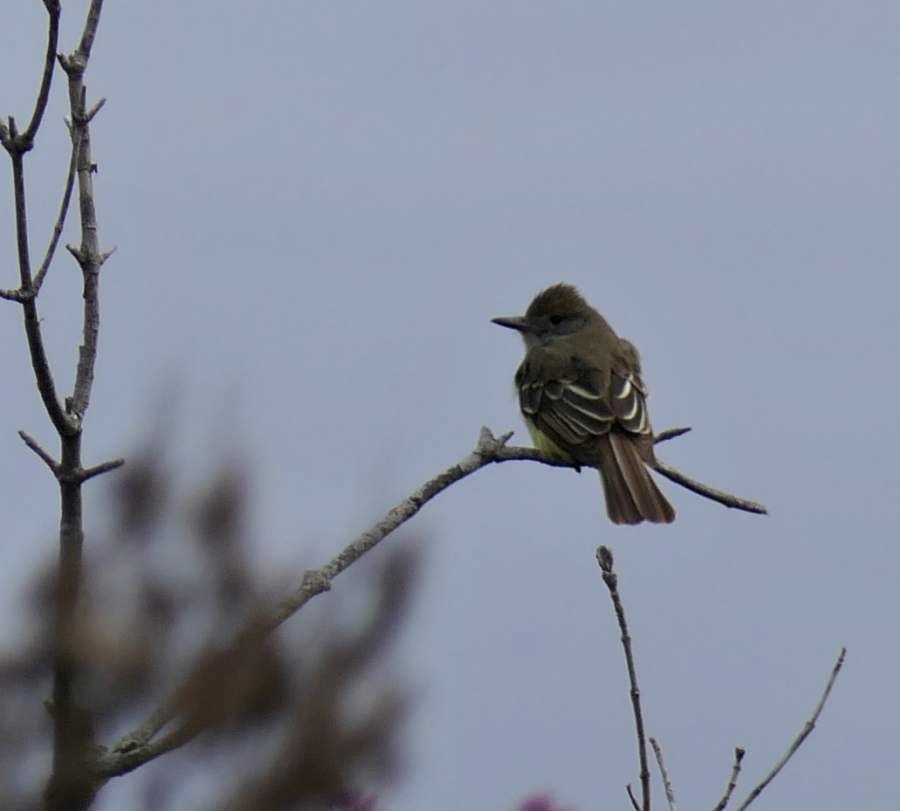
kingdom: Animalia
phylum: Chordata
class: Aves
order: Passeriformes
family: Tyrannidae
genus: Myiarchus
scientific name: Myiarchus crinitus
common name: Great crested flycatcher
